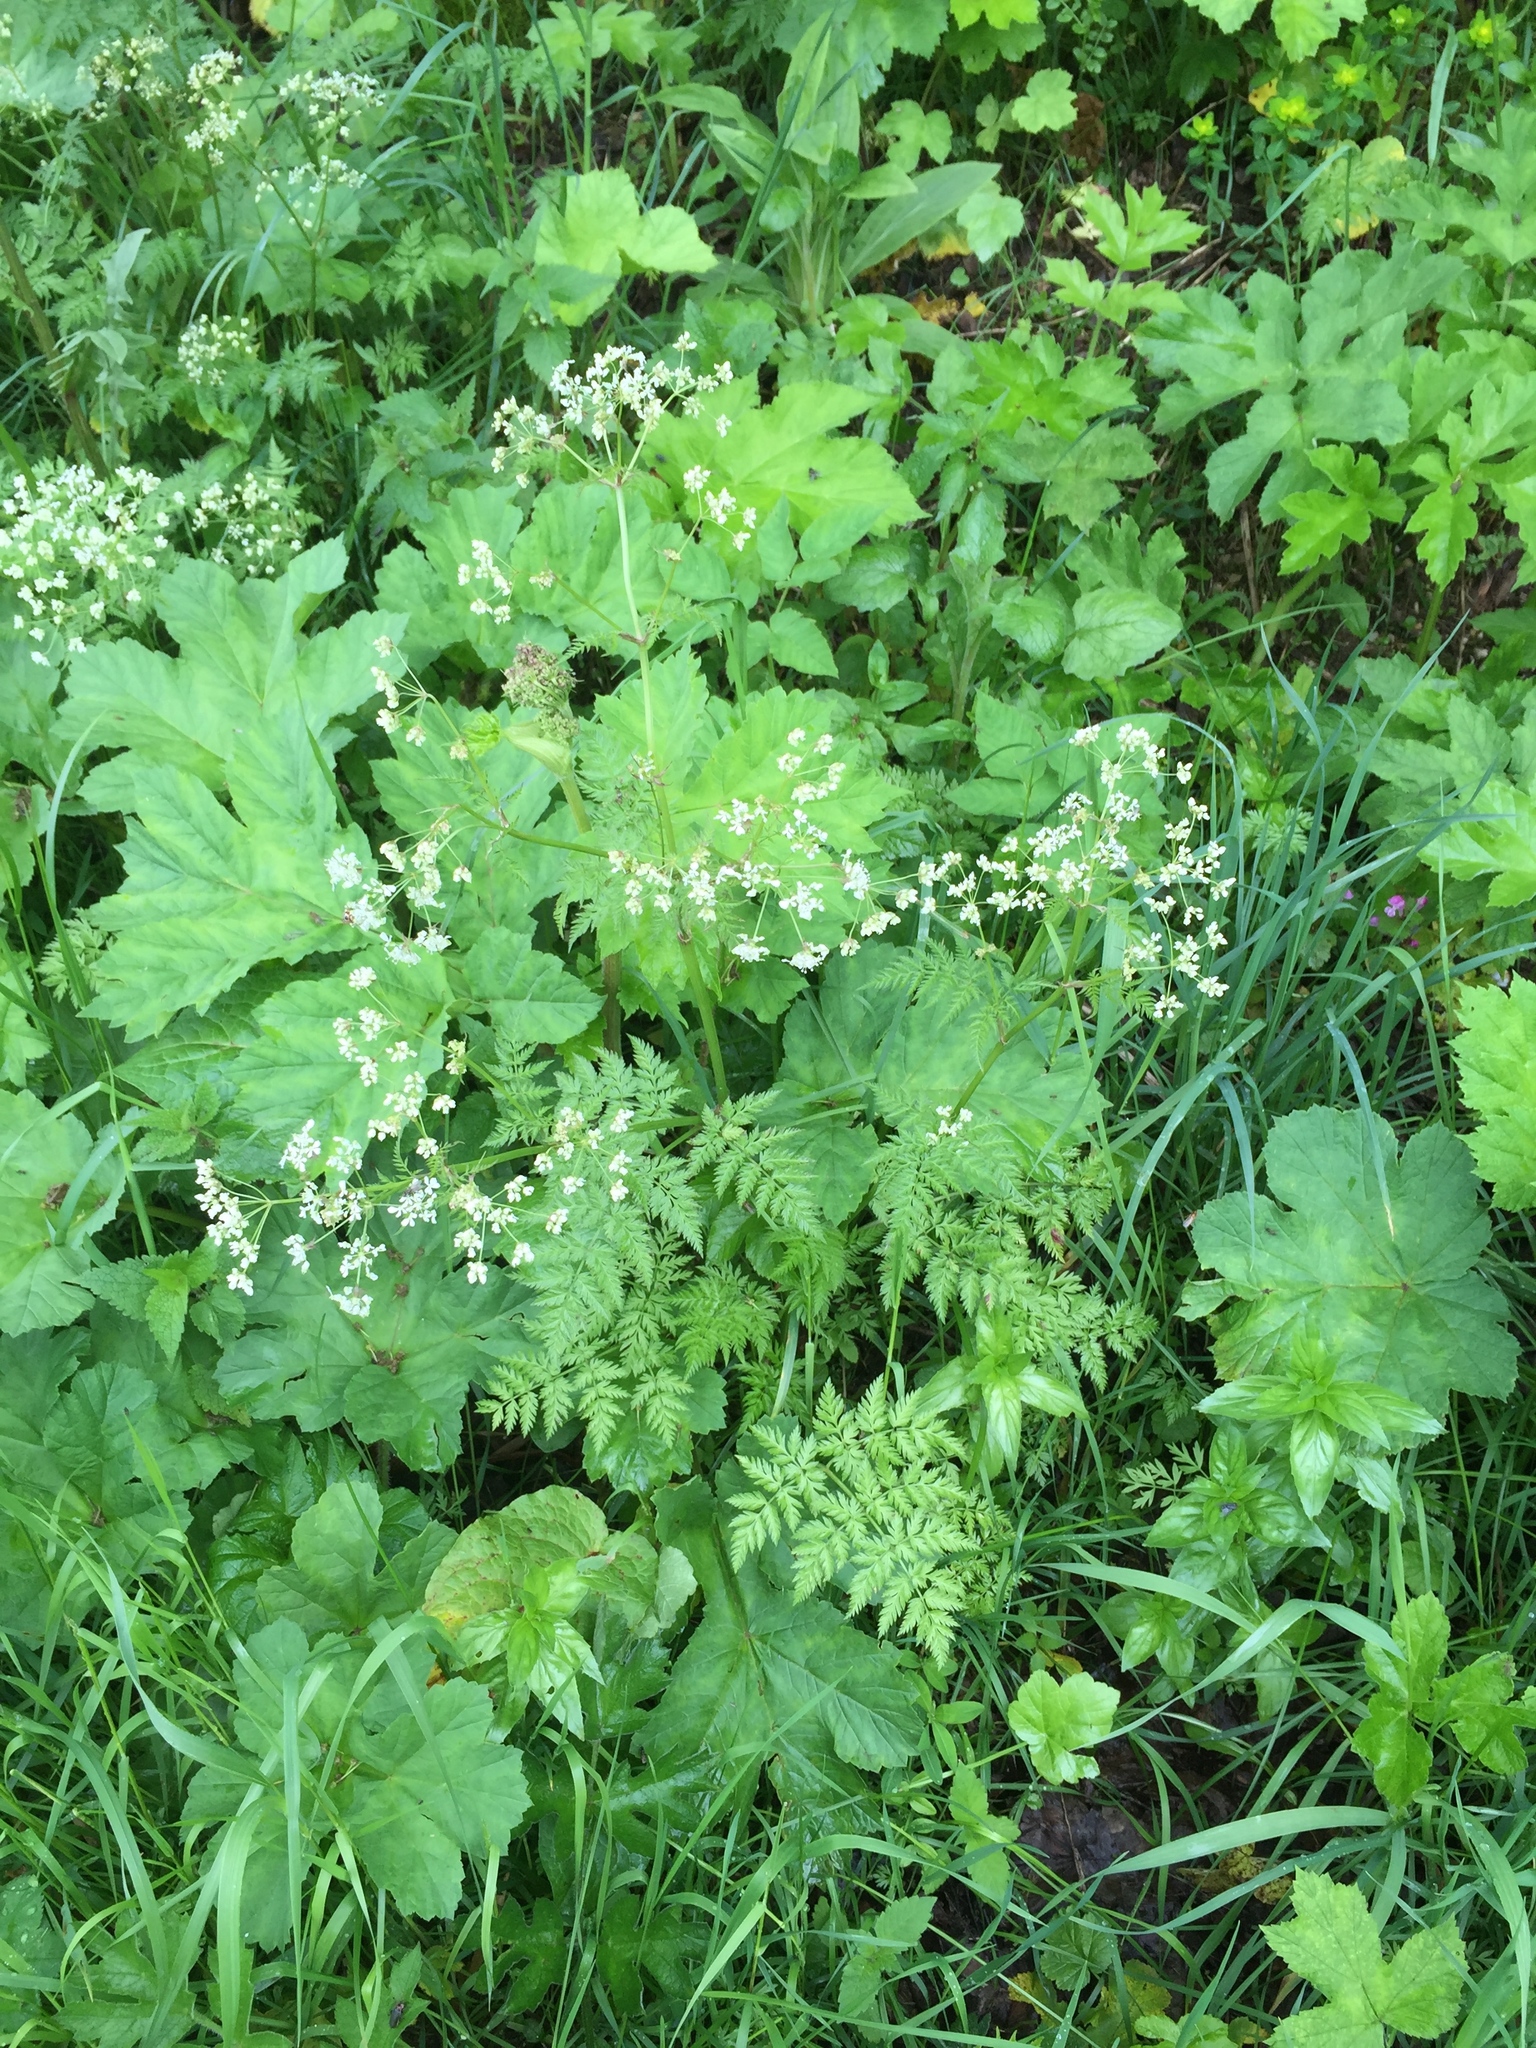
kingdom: Plantae
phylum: Tracheophyta
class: Magnoliopsida
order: Apiales
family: Apiaceae
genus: Anthriscus
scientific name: Anthriscus sylvestris
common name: Cow parsley
